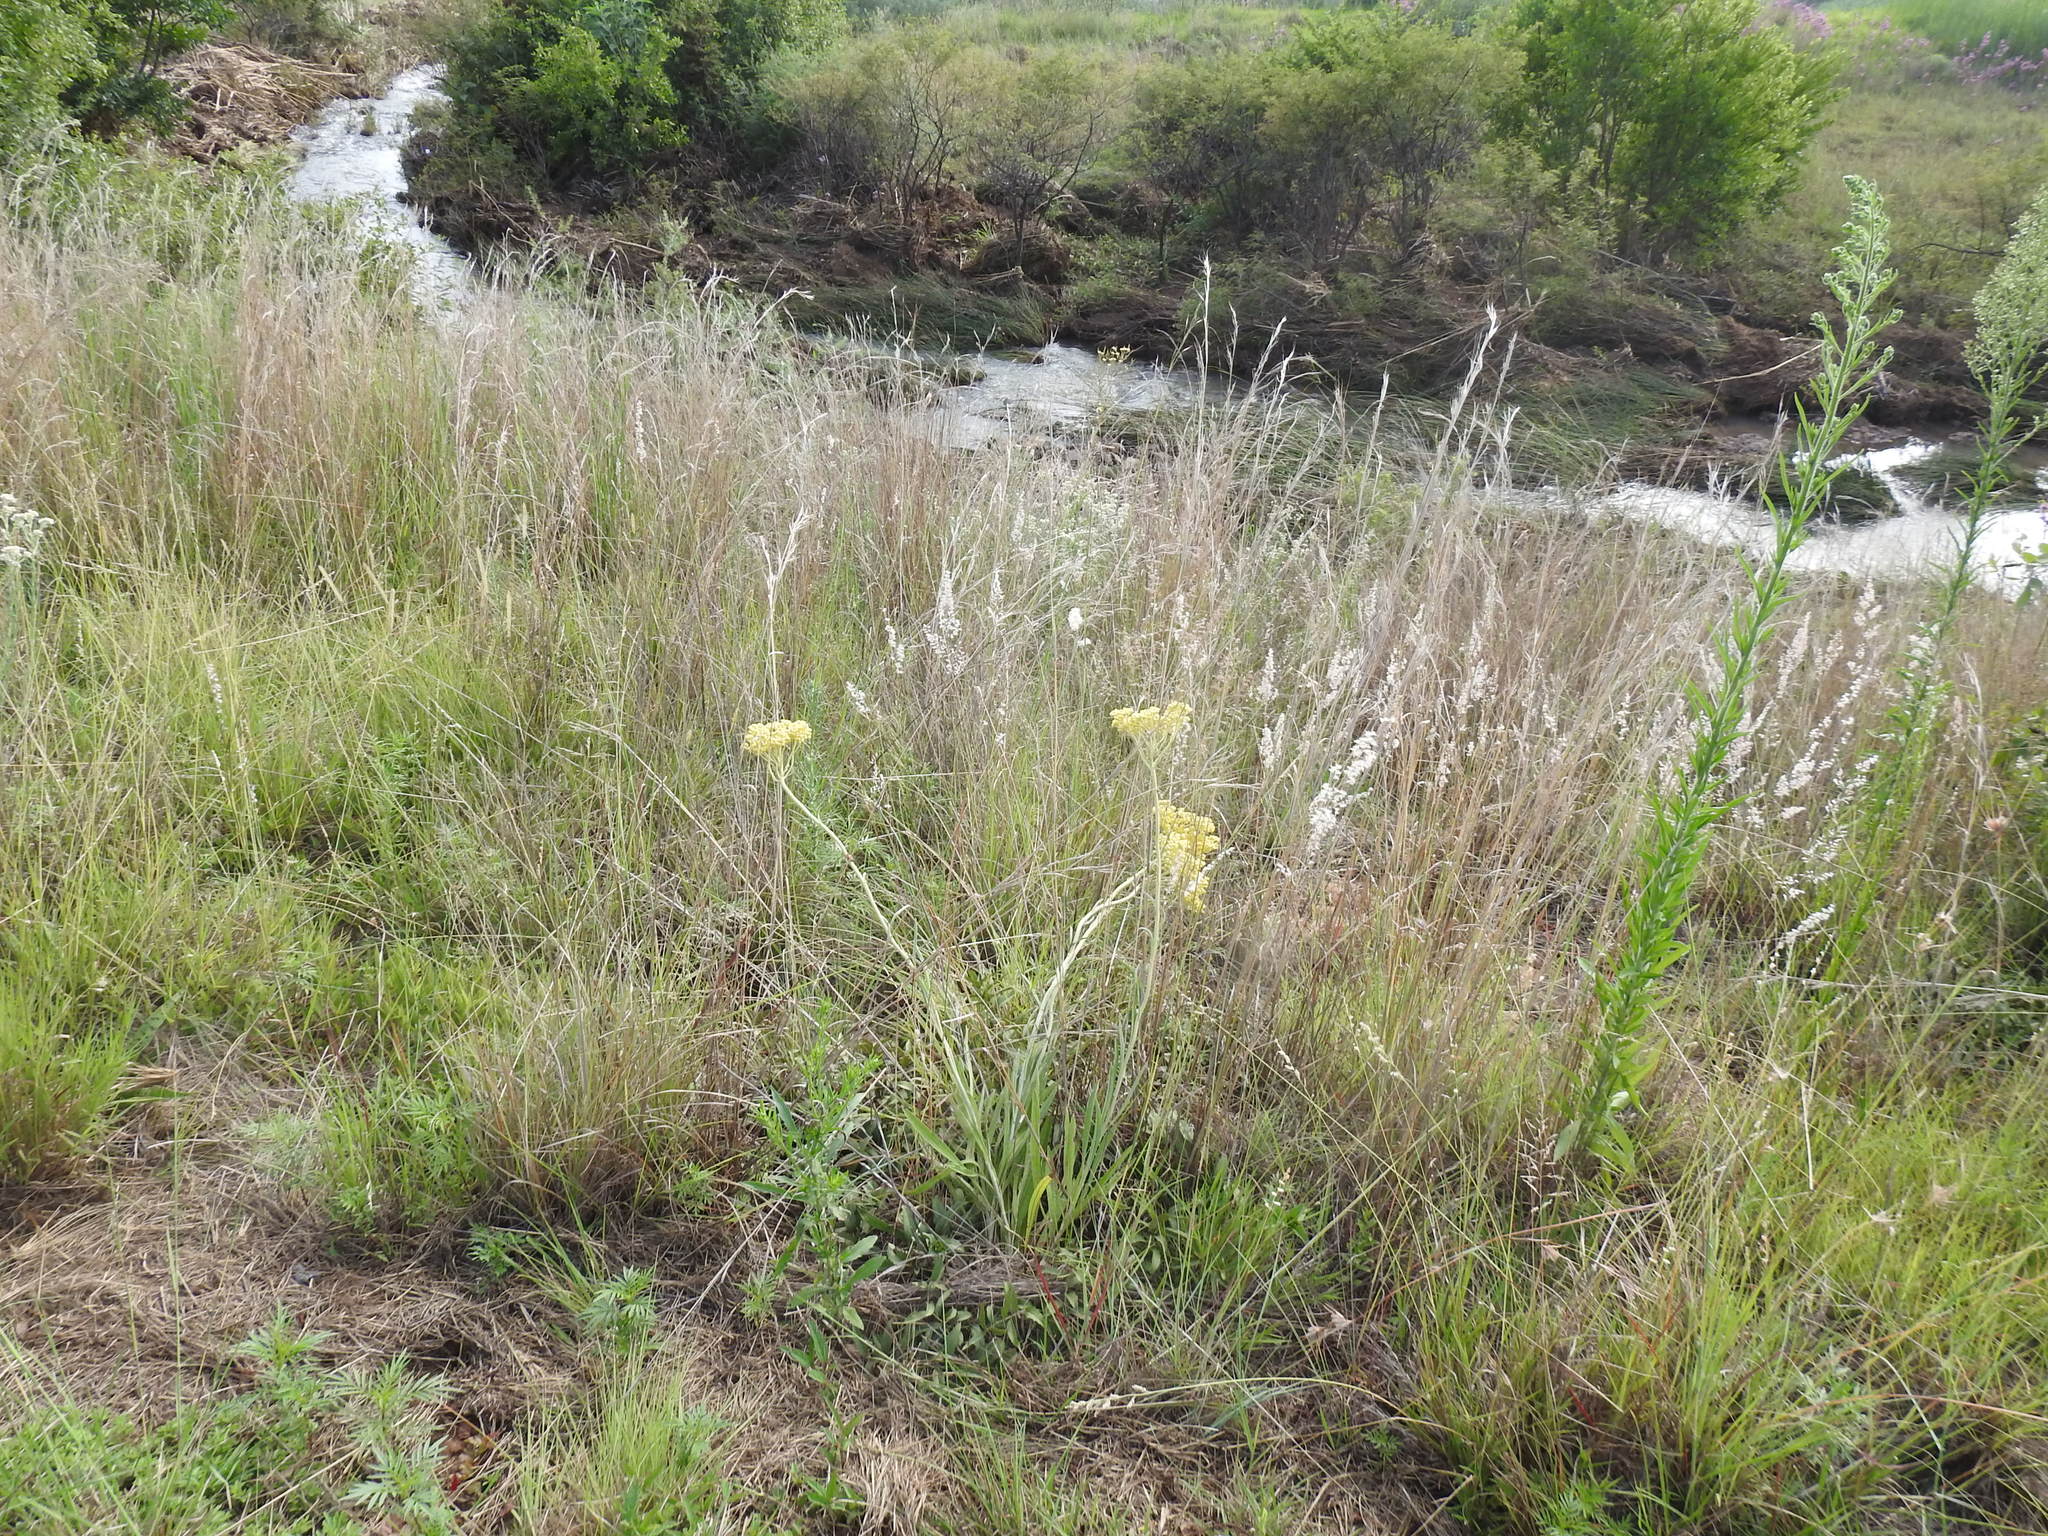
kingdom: Plantae
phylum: Tracheophyta
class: Magnoliopsida
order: Asterales
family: Asteraceae
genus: Helichrysum
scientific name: Helichrysum nudifolium
